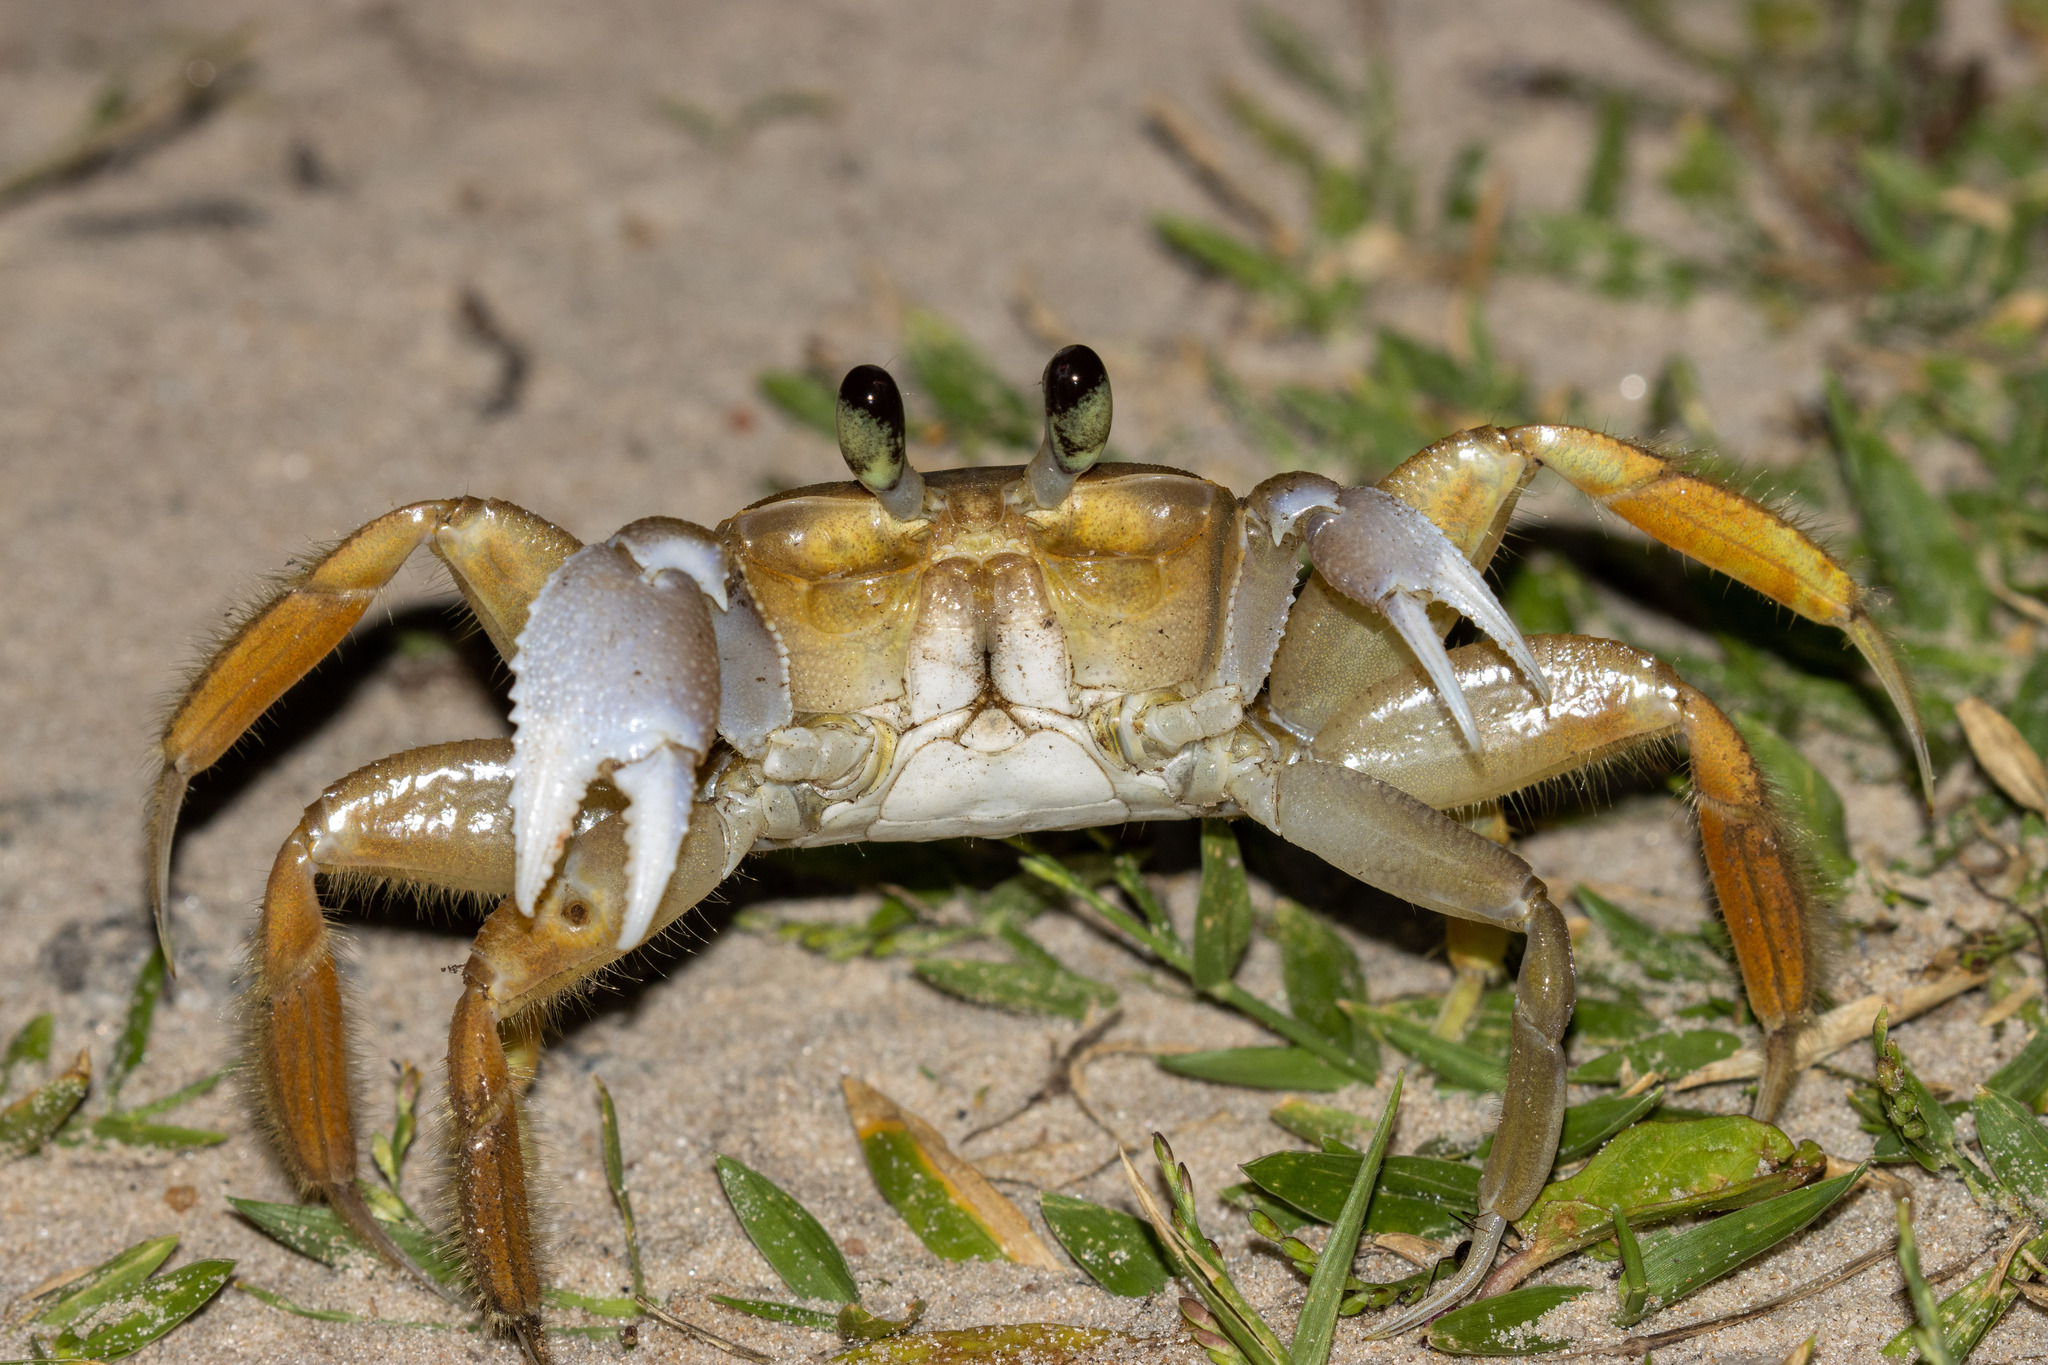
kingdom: Animalia
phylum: Arthropoda
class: Malacostraca
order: Decapoda
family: Ocypodidae
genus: Ocypode
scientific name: Ocypode quadrata
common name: Ghost crab
